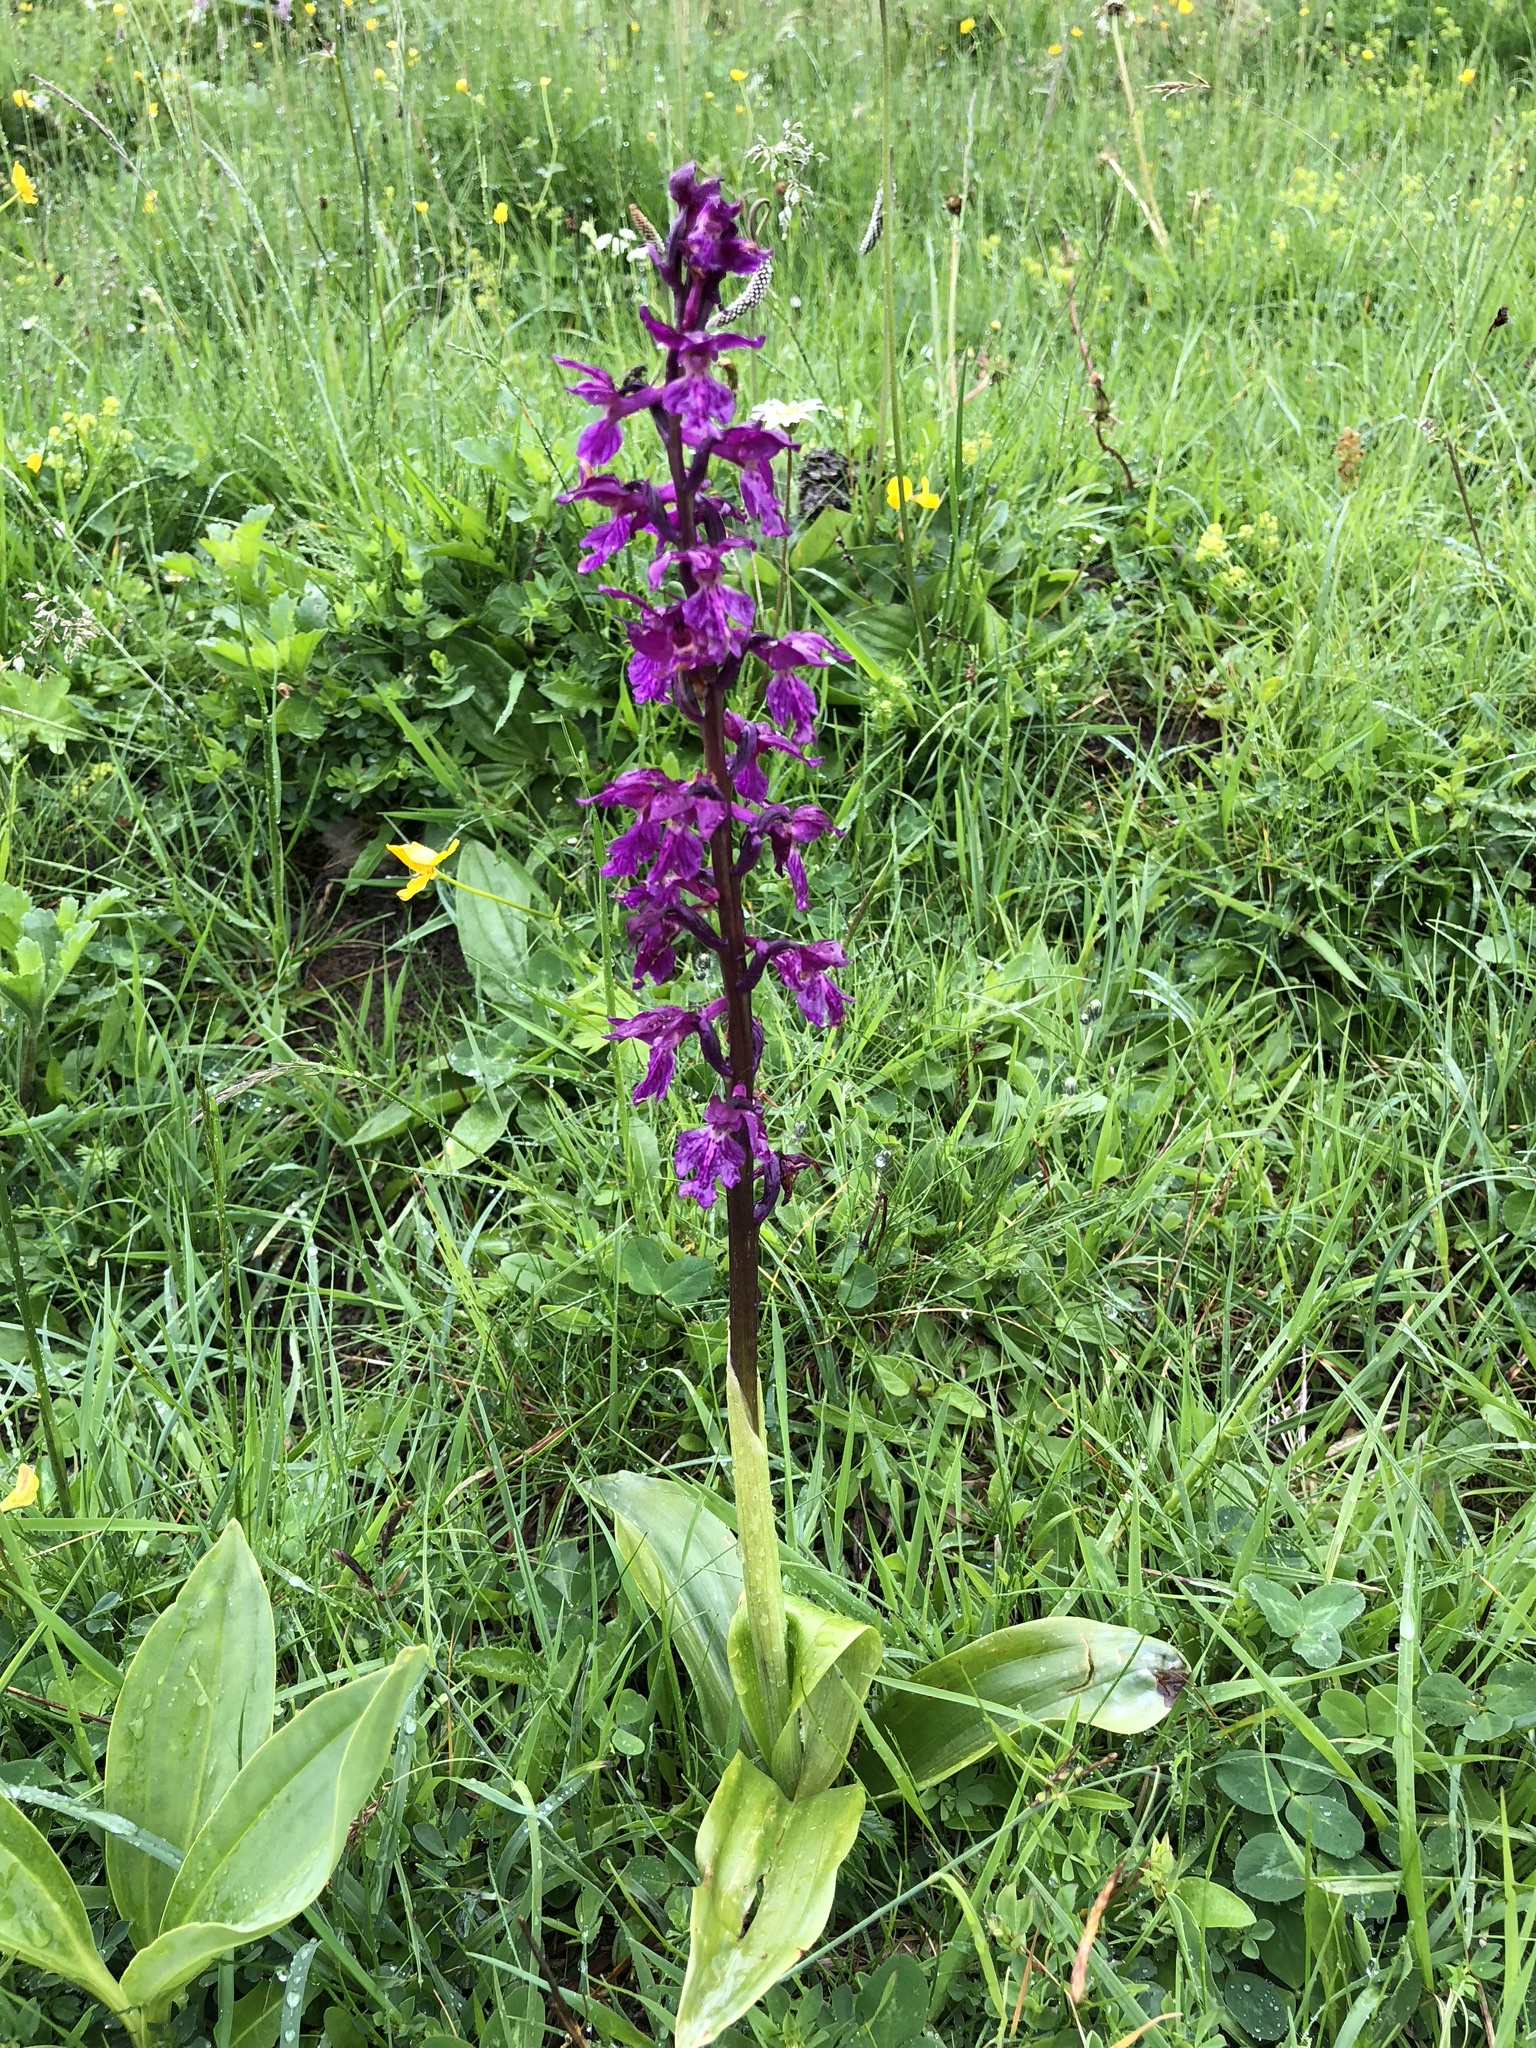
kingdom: Plantae
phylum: Tracheophyta
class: Liliopsida
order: Asparagales
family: Orchidaceae
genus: Orchis
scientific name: Orchis mascula
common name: Early-purple orchid
